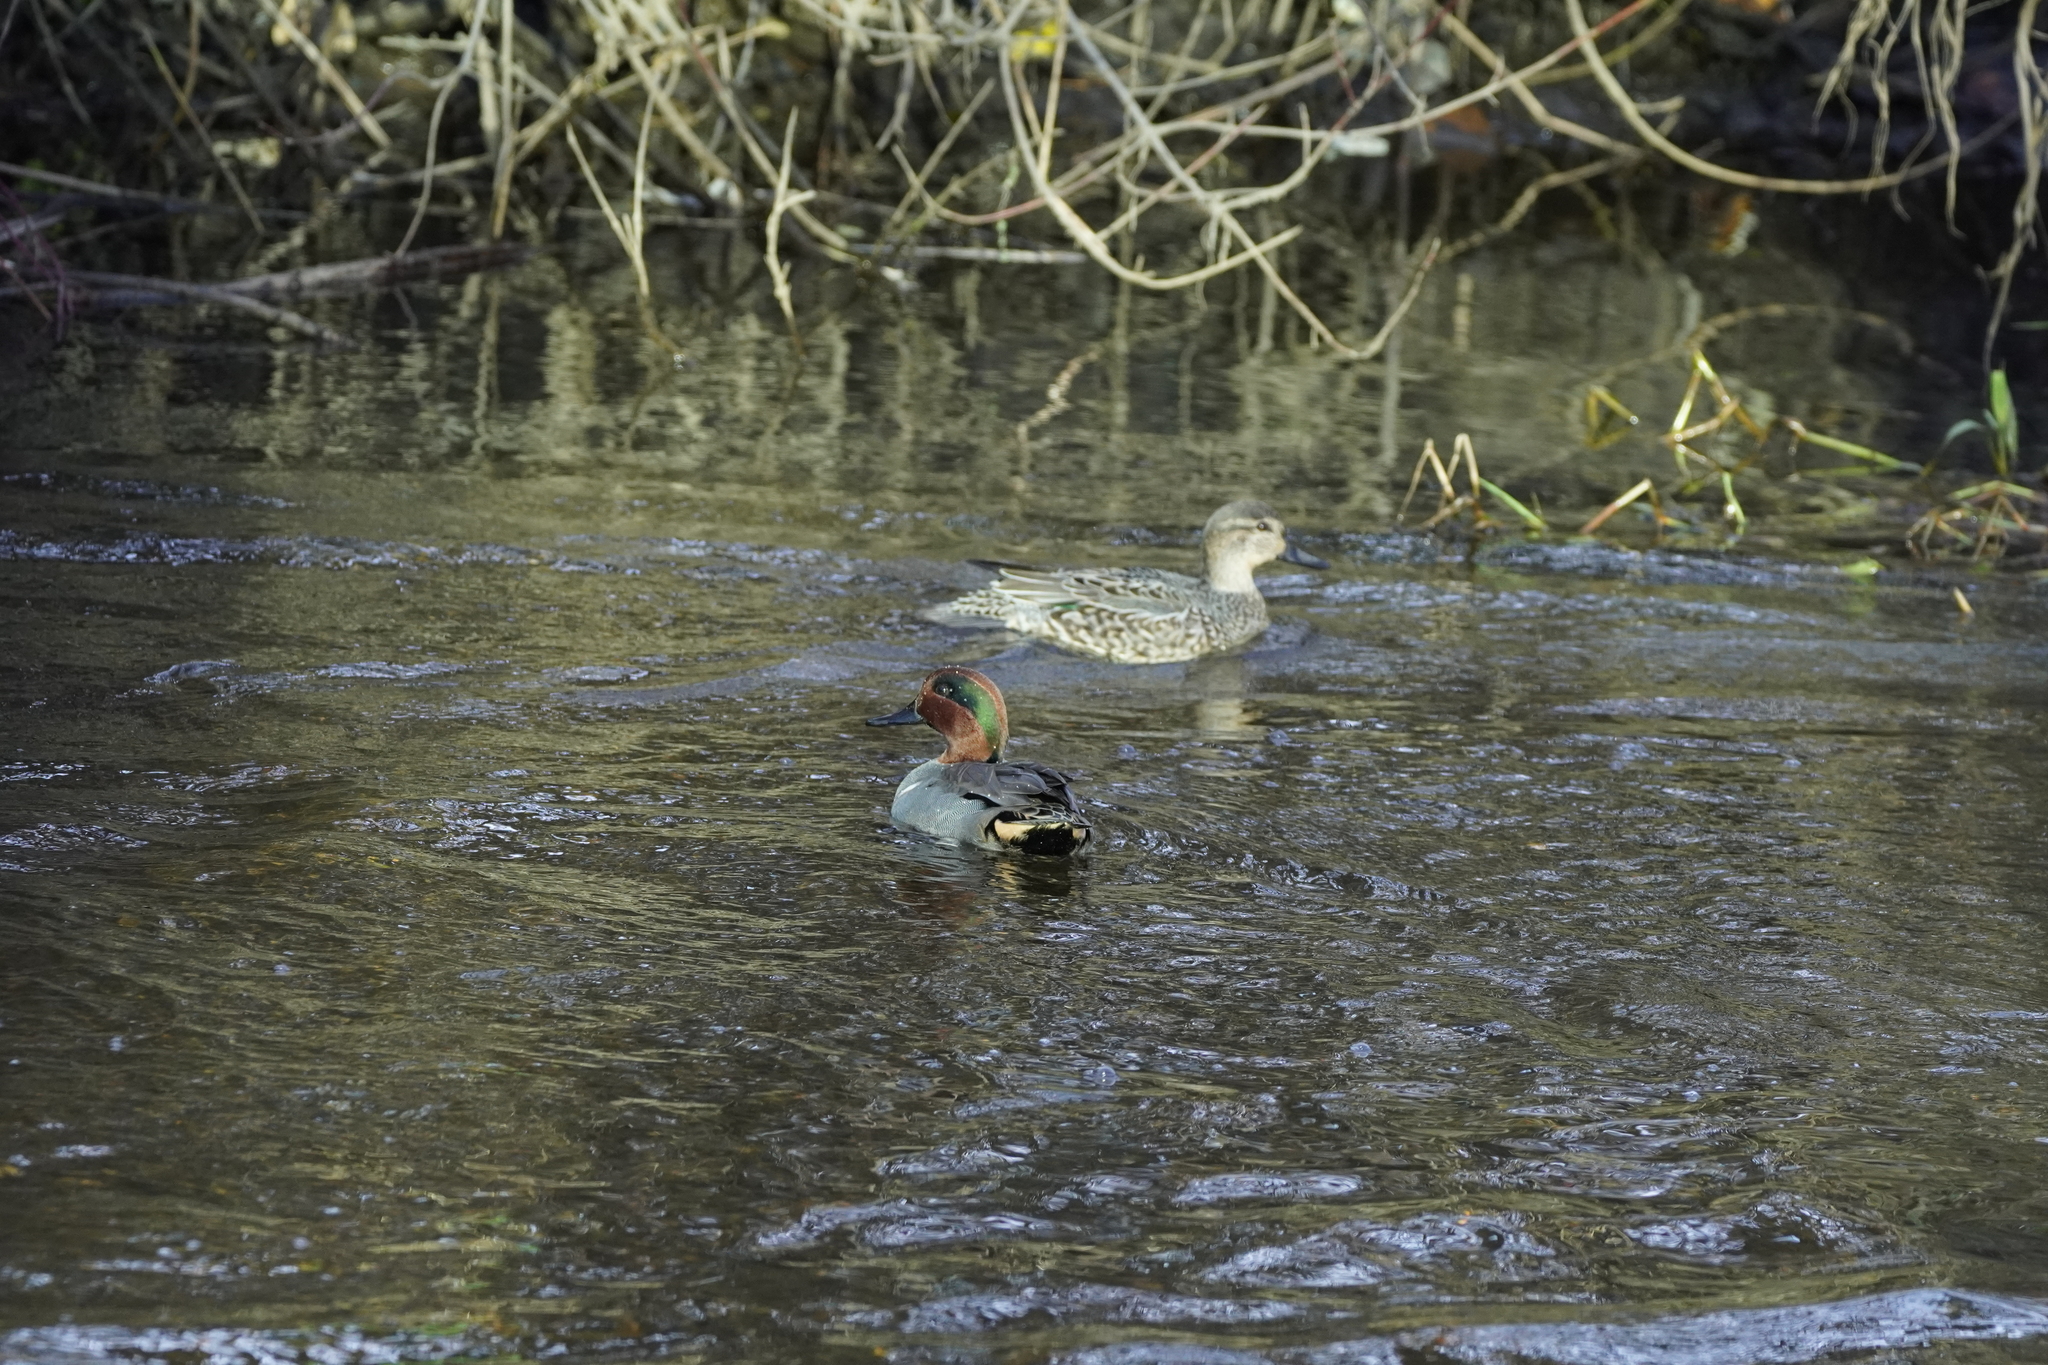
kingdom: Animalia
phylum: Chordata
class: Aves
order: Anseriformes
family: Anatidae
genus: Anas
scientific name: Anas crecca
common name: Eurasian teal
